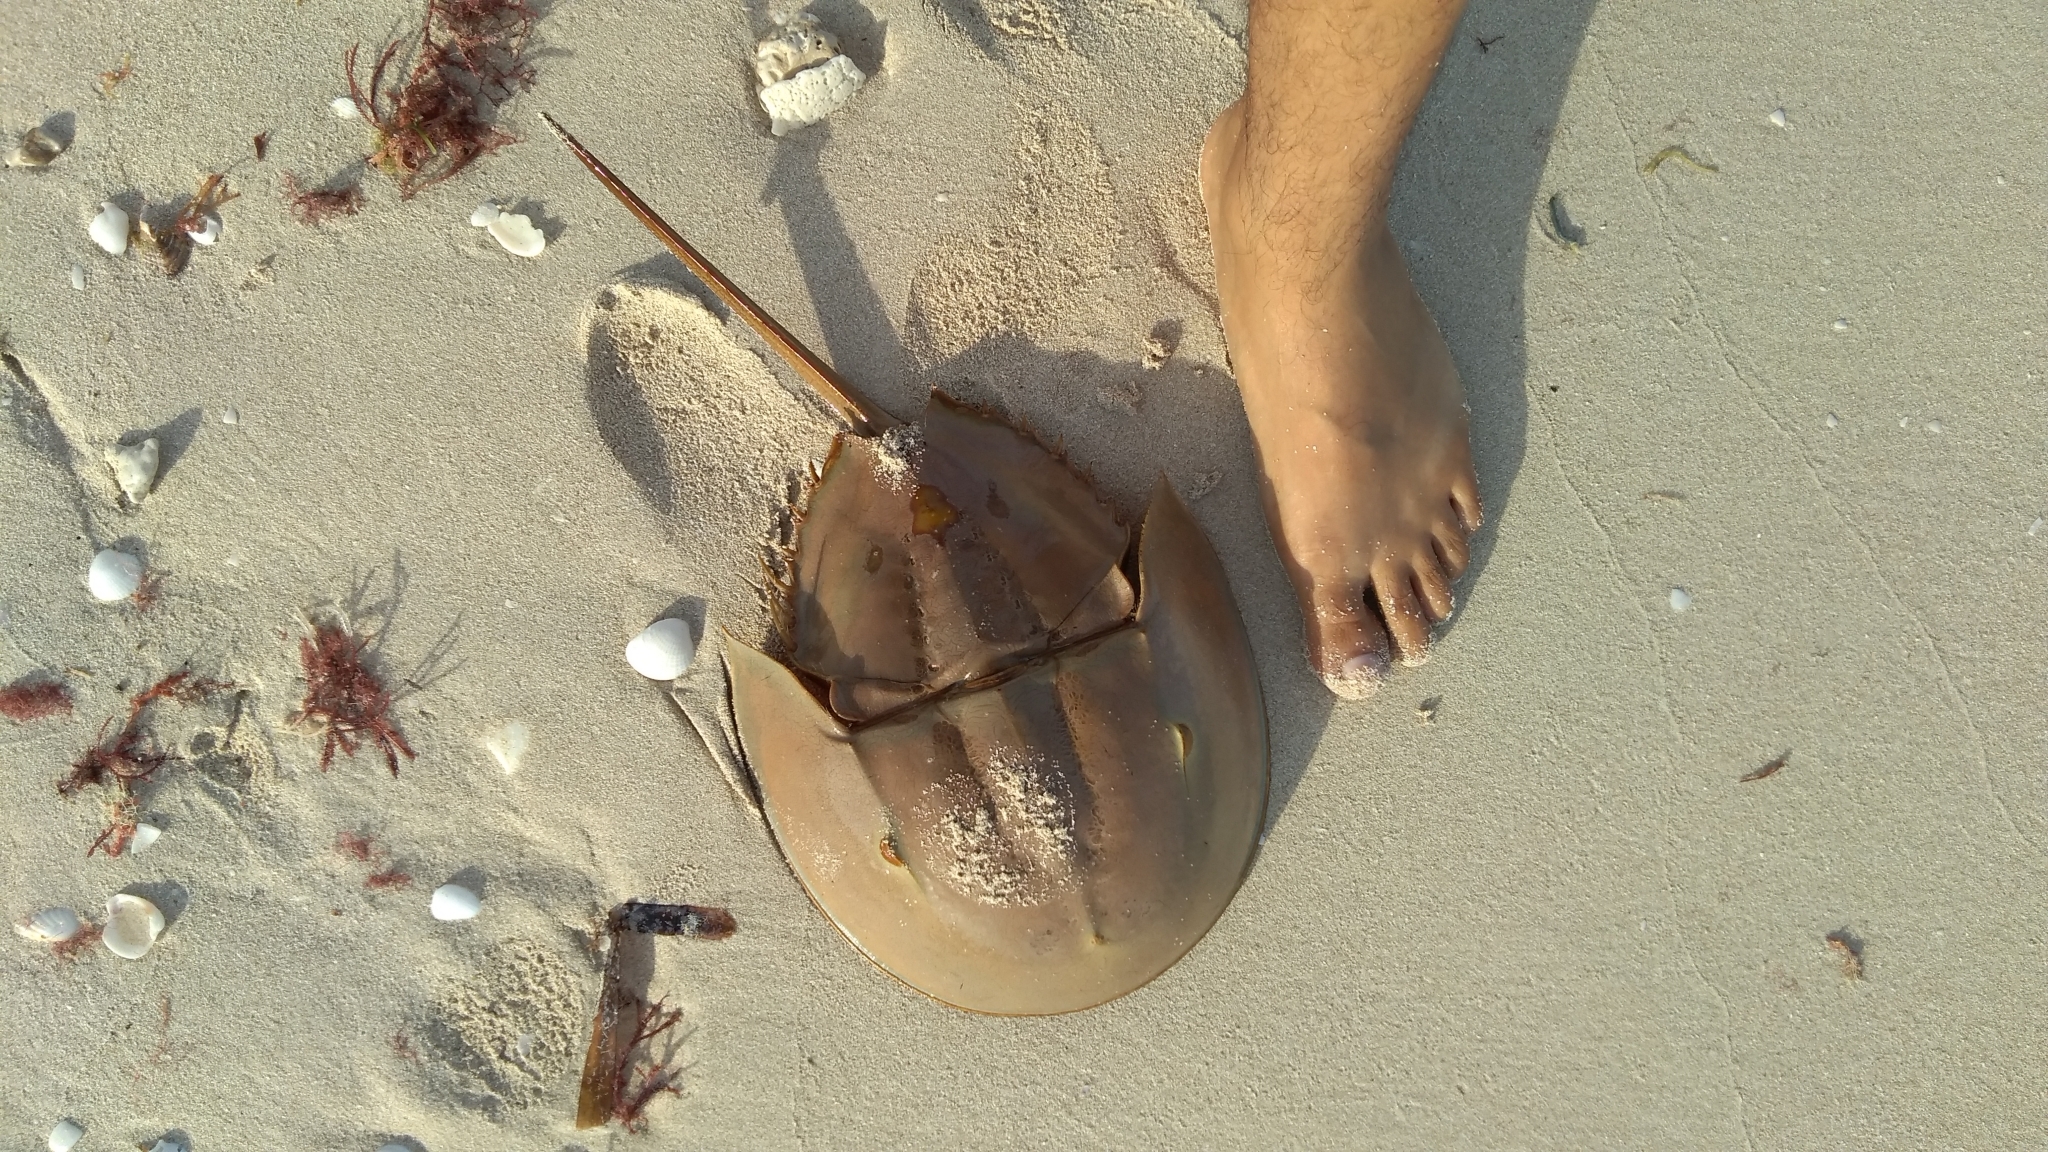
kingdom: Animalia
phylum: Arthropoda
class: Merostomata
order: Xiphosurida
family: Limulidae
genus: Limulus
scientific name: Limulus polyphemus
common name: Horseshoe crab
